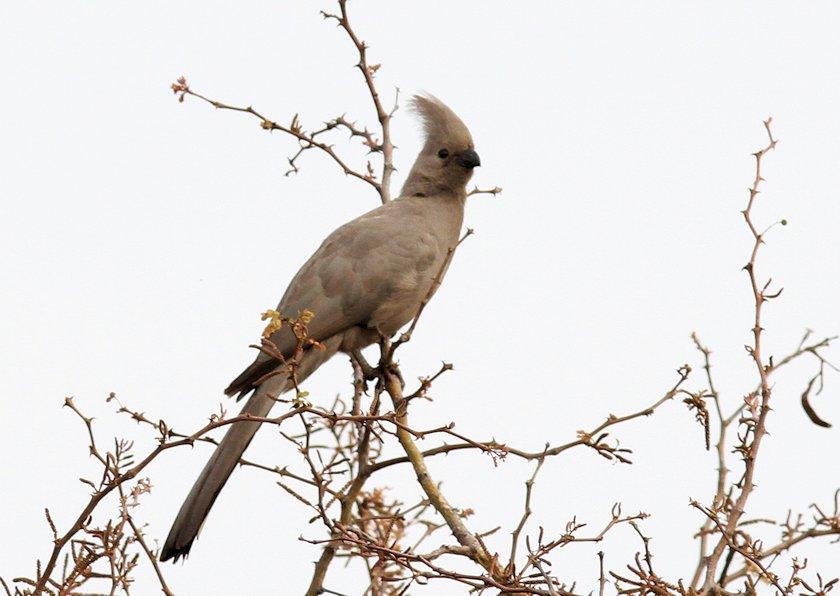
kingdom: Animalia
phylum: Chordata
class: Aves
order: Musophagiformes
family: Musophagidae
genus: Corythaixoides
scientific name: Corythaixoides concolor
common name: Grey go-away-bird
